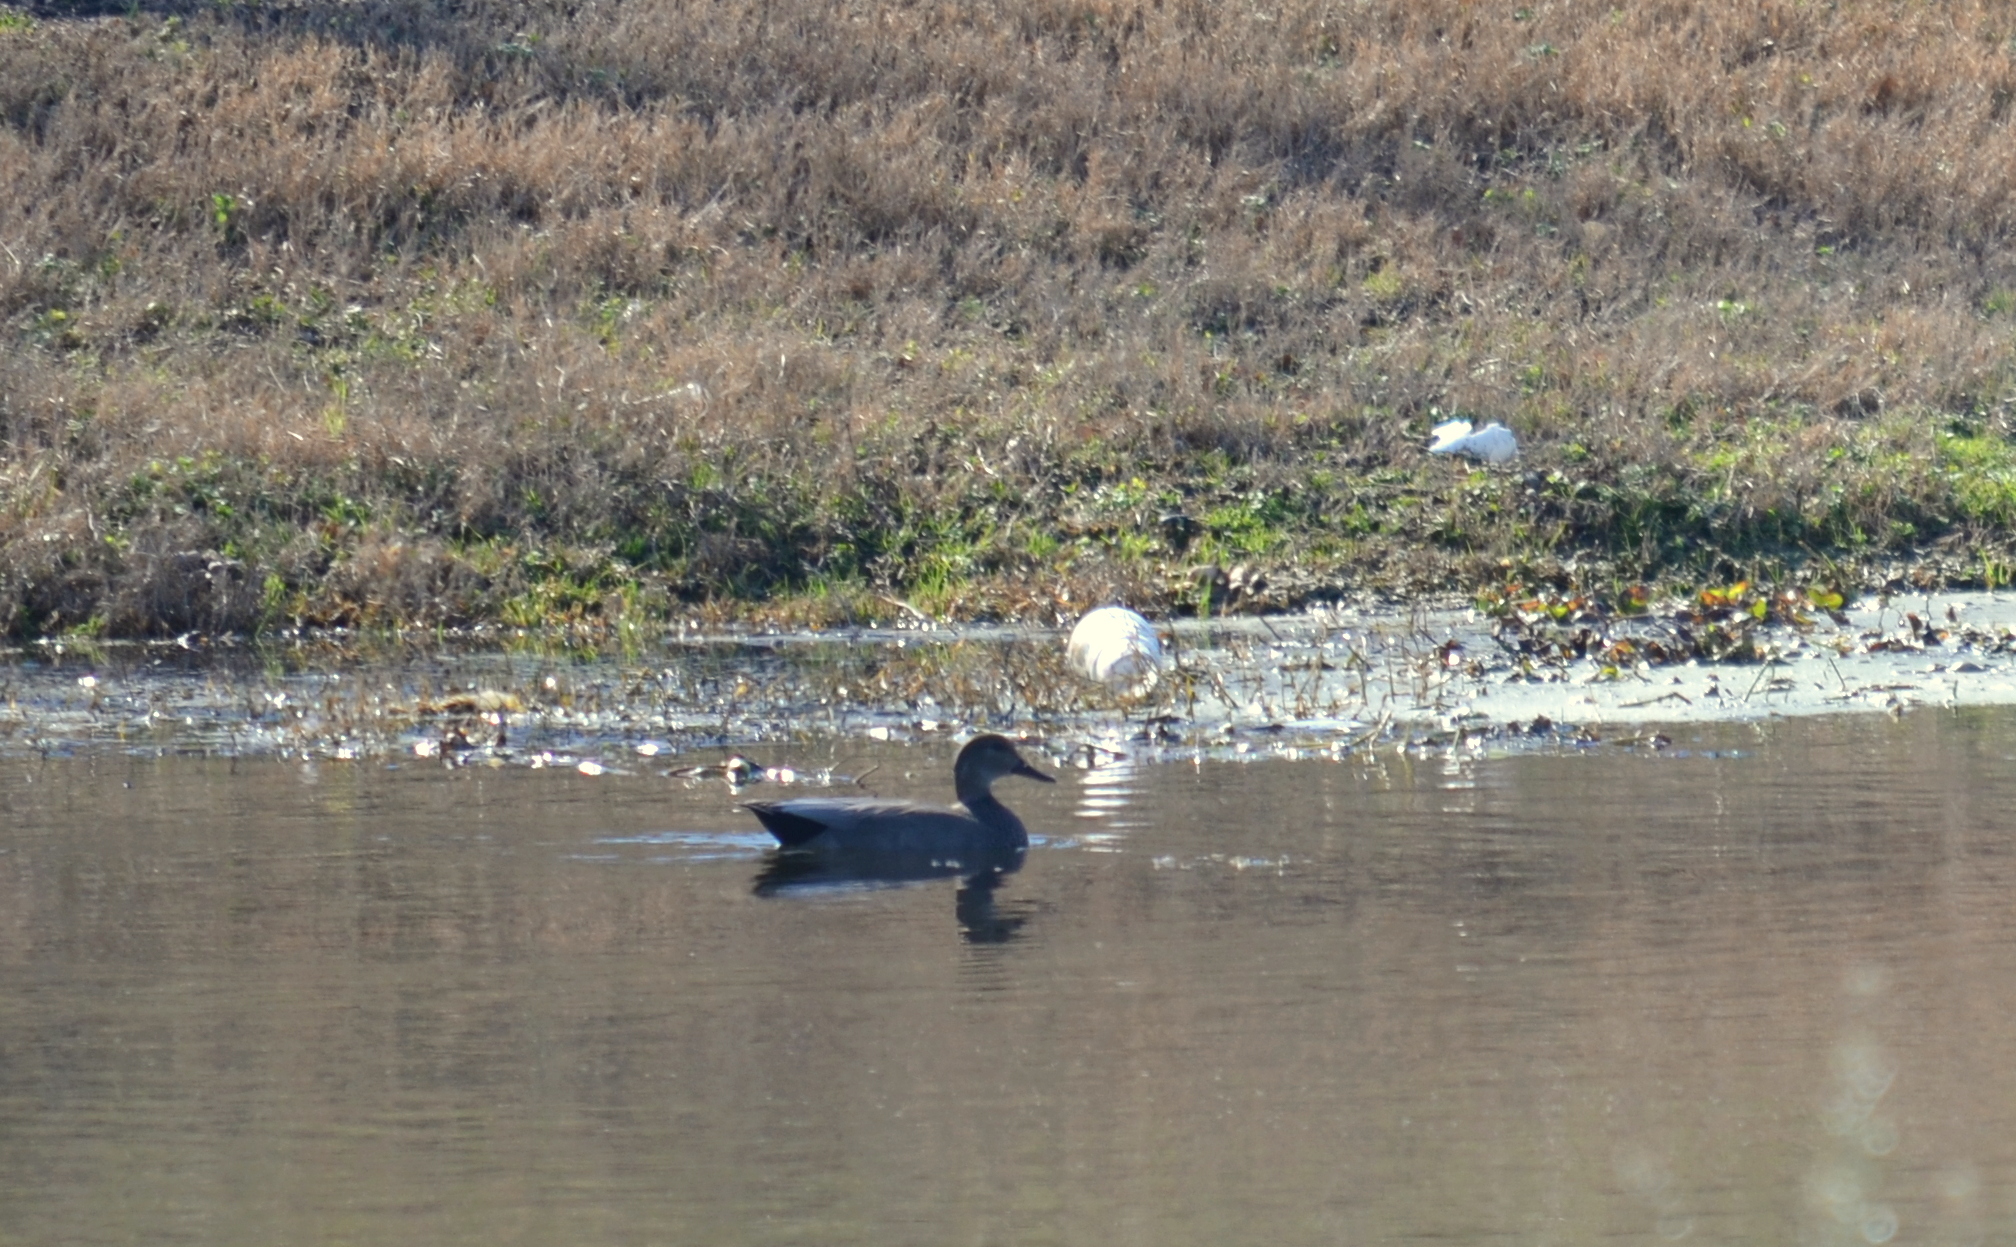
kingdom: Animalia
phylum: Chordata
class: Aves
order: Anseriformes
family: Anatidae
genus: Mareca
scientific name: Mareca strepera
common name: Gadwall
